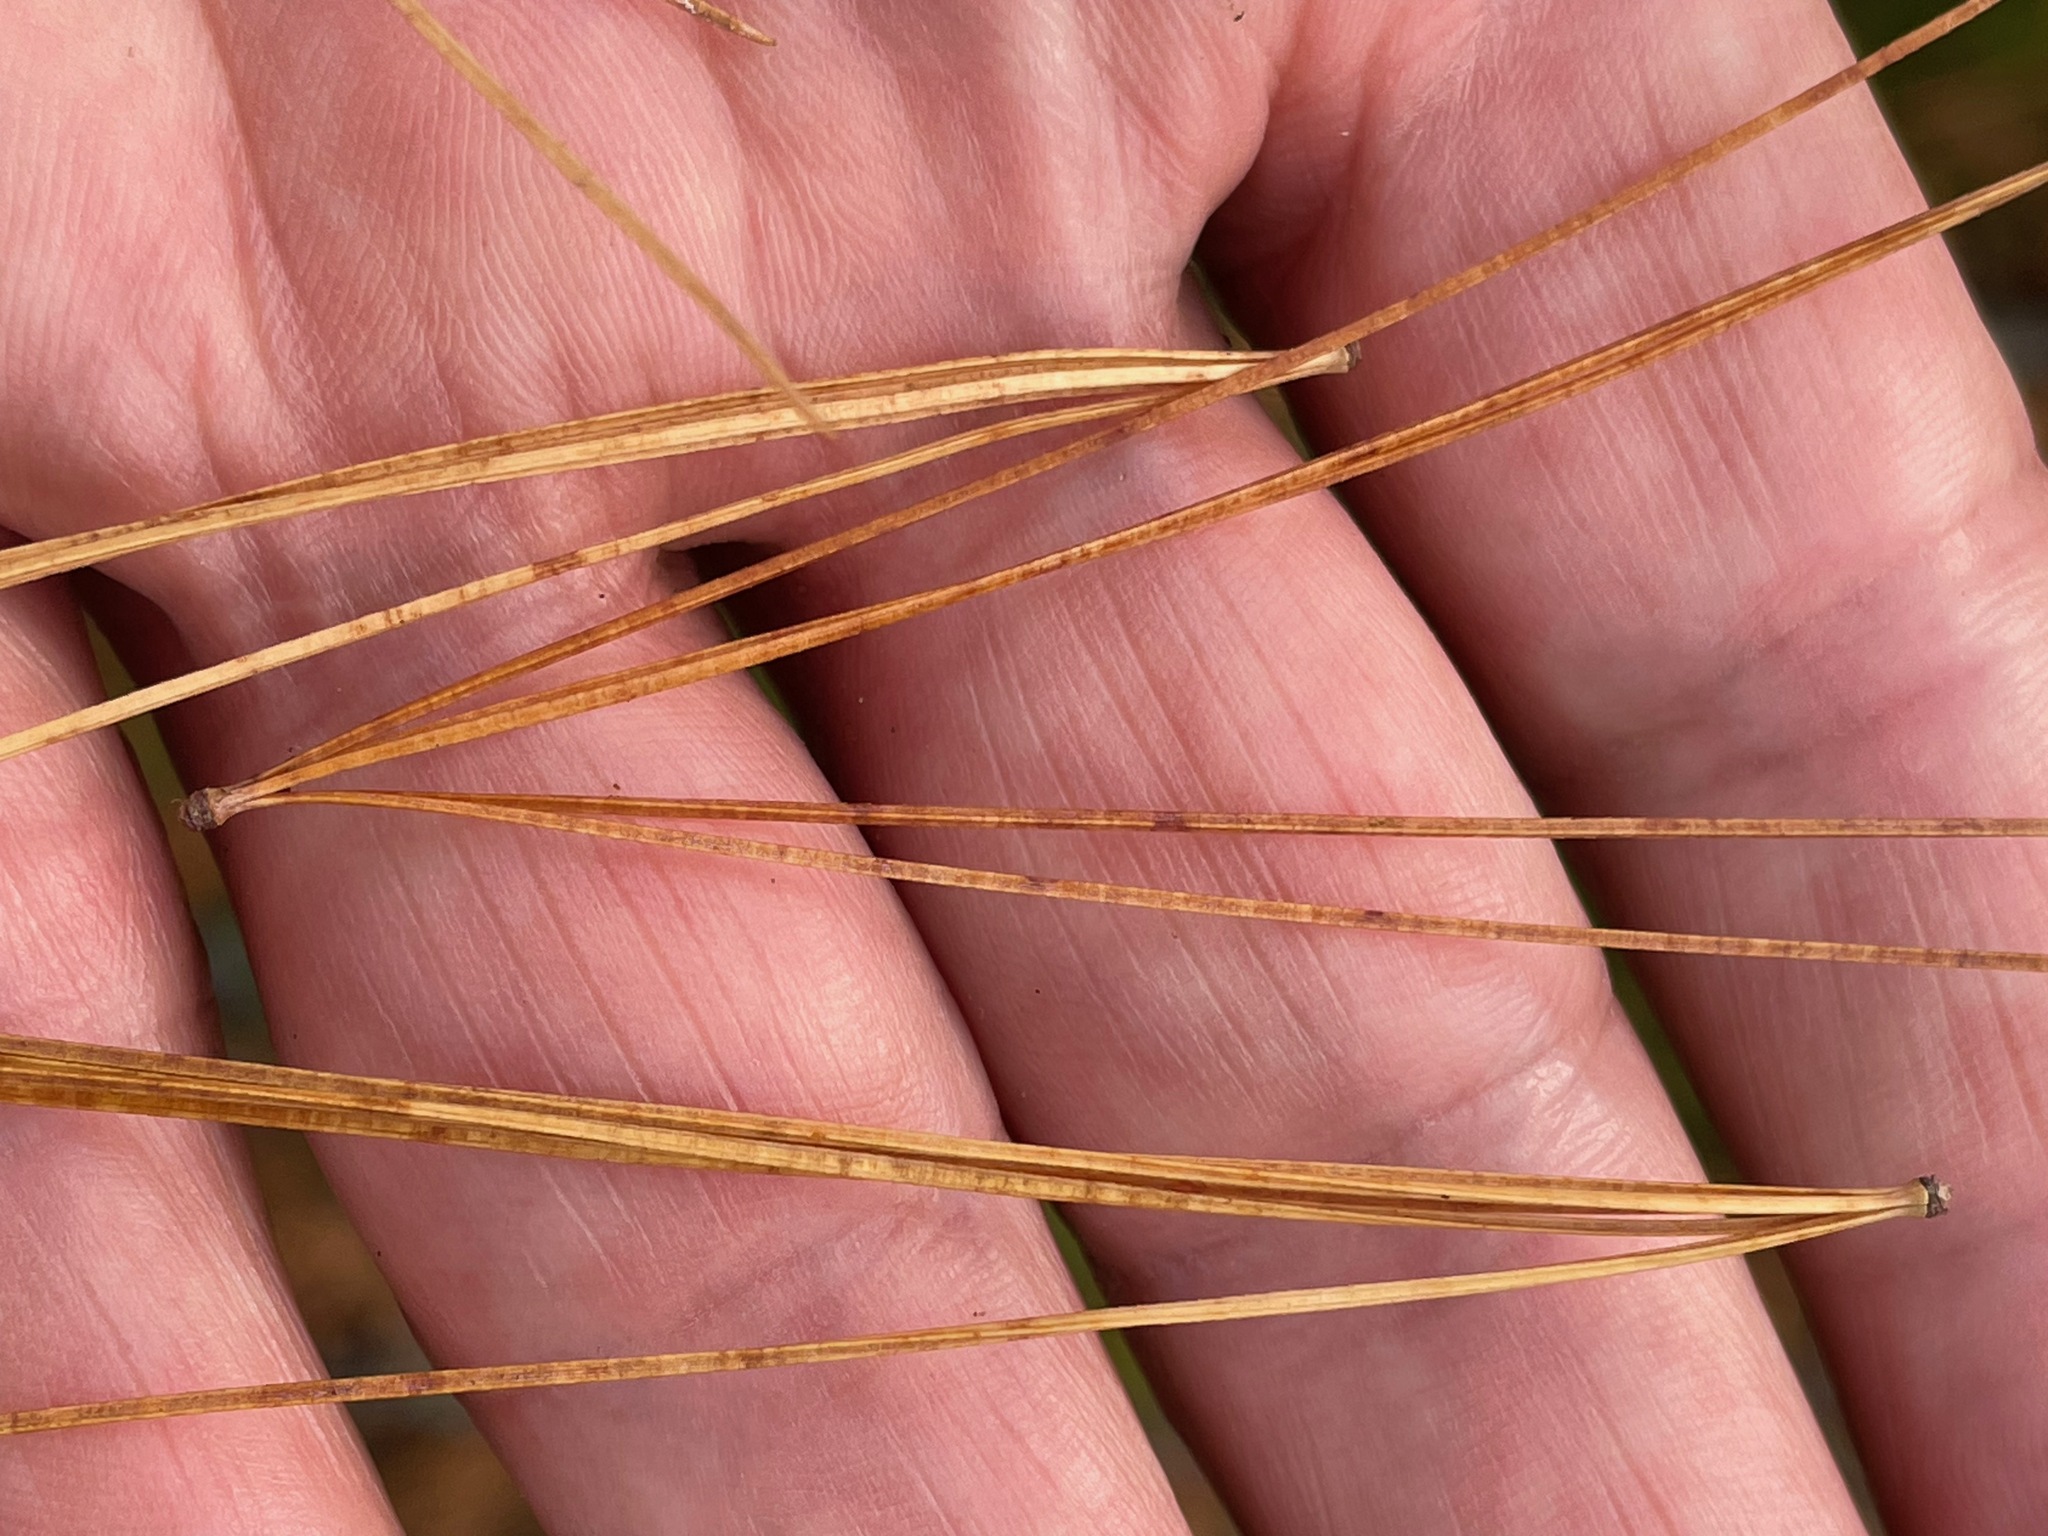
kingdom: Plantae
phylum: Tracheophyta
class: Pinopsida
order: Pinales
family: Pinaceae
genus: Pinus
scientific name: Pinus strobus
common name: Weymouth pine
